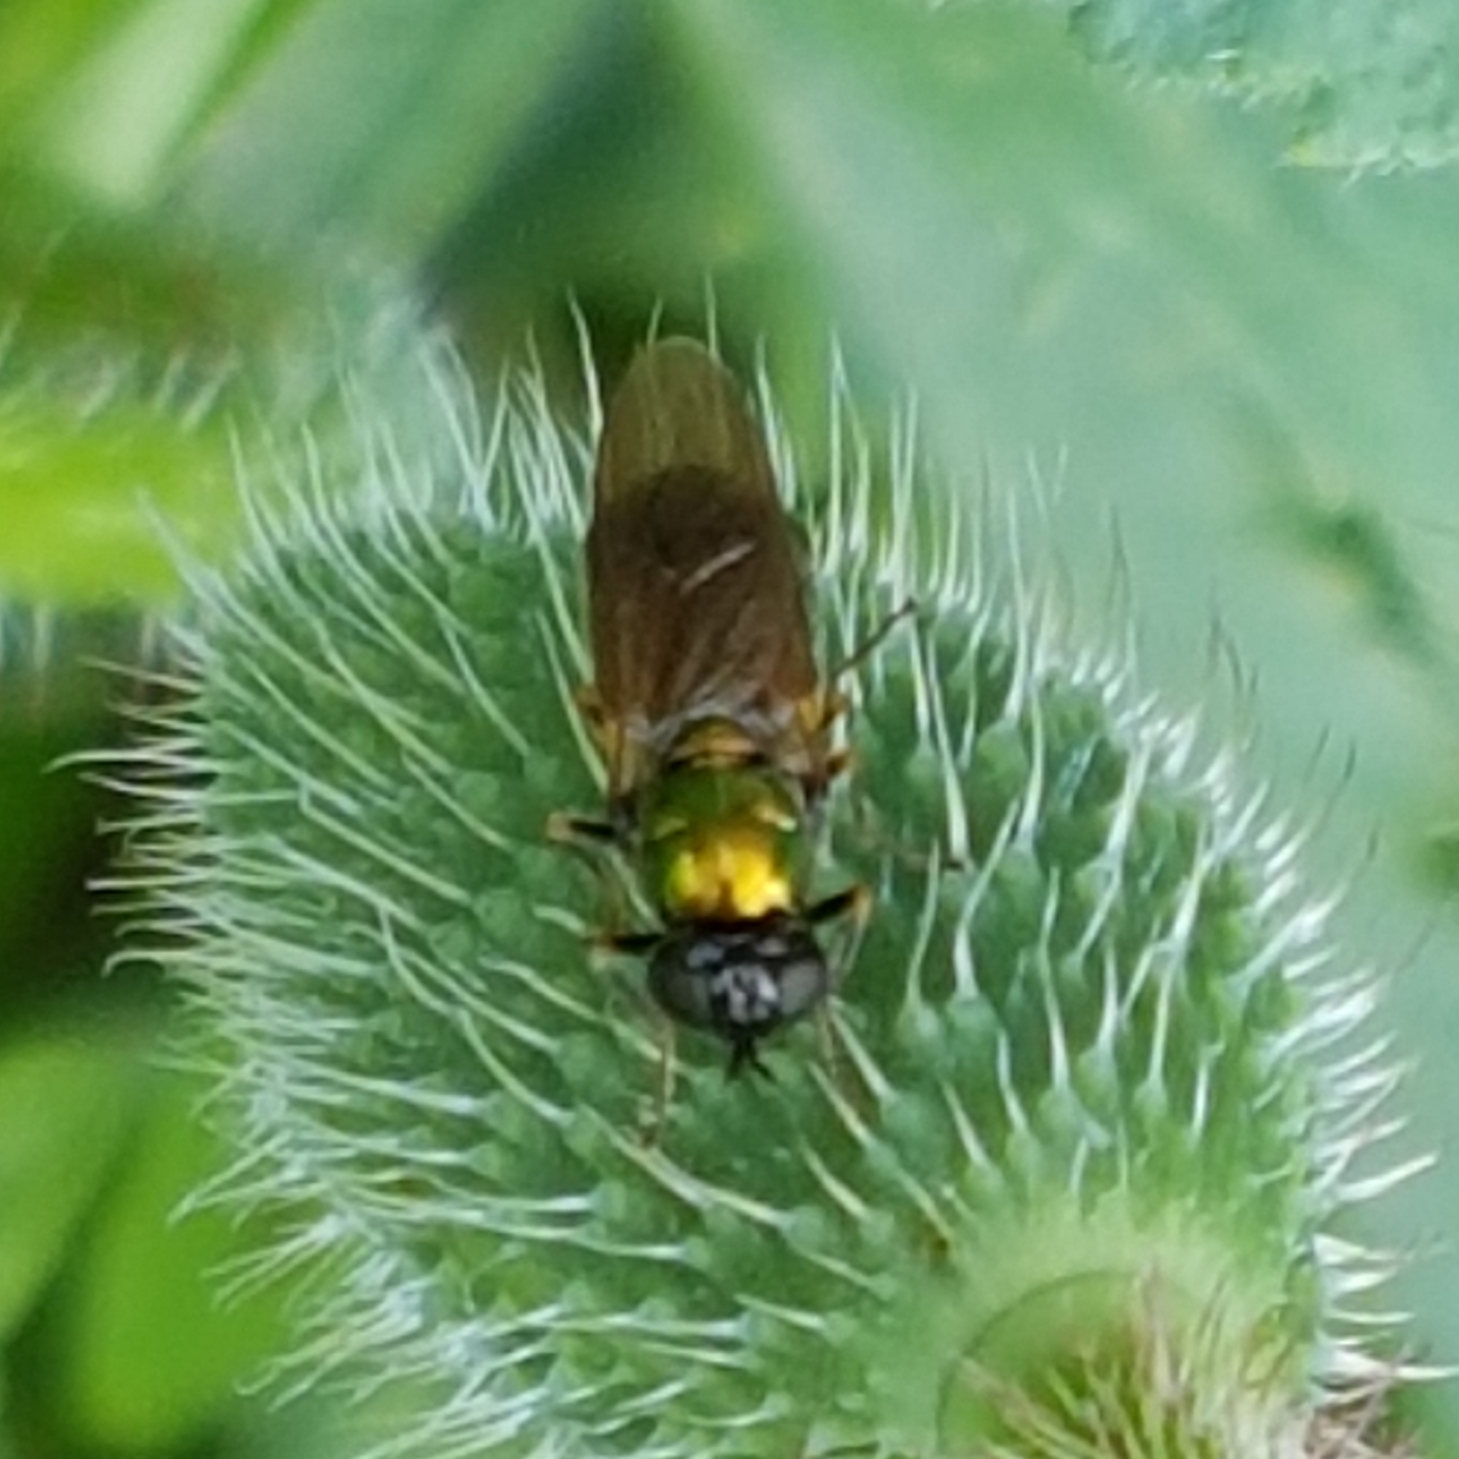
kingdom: Animalia
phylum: Arthropoda
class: Insecta
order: Diptera
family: Stratiomyidae
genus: Chloromyia
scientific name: Chloromyia formosa
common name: Soldier fly
